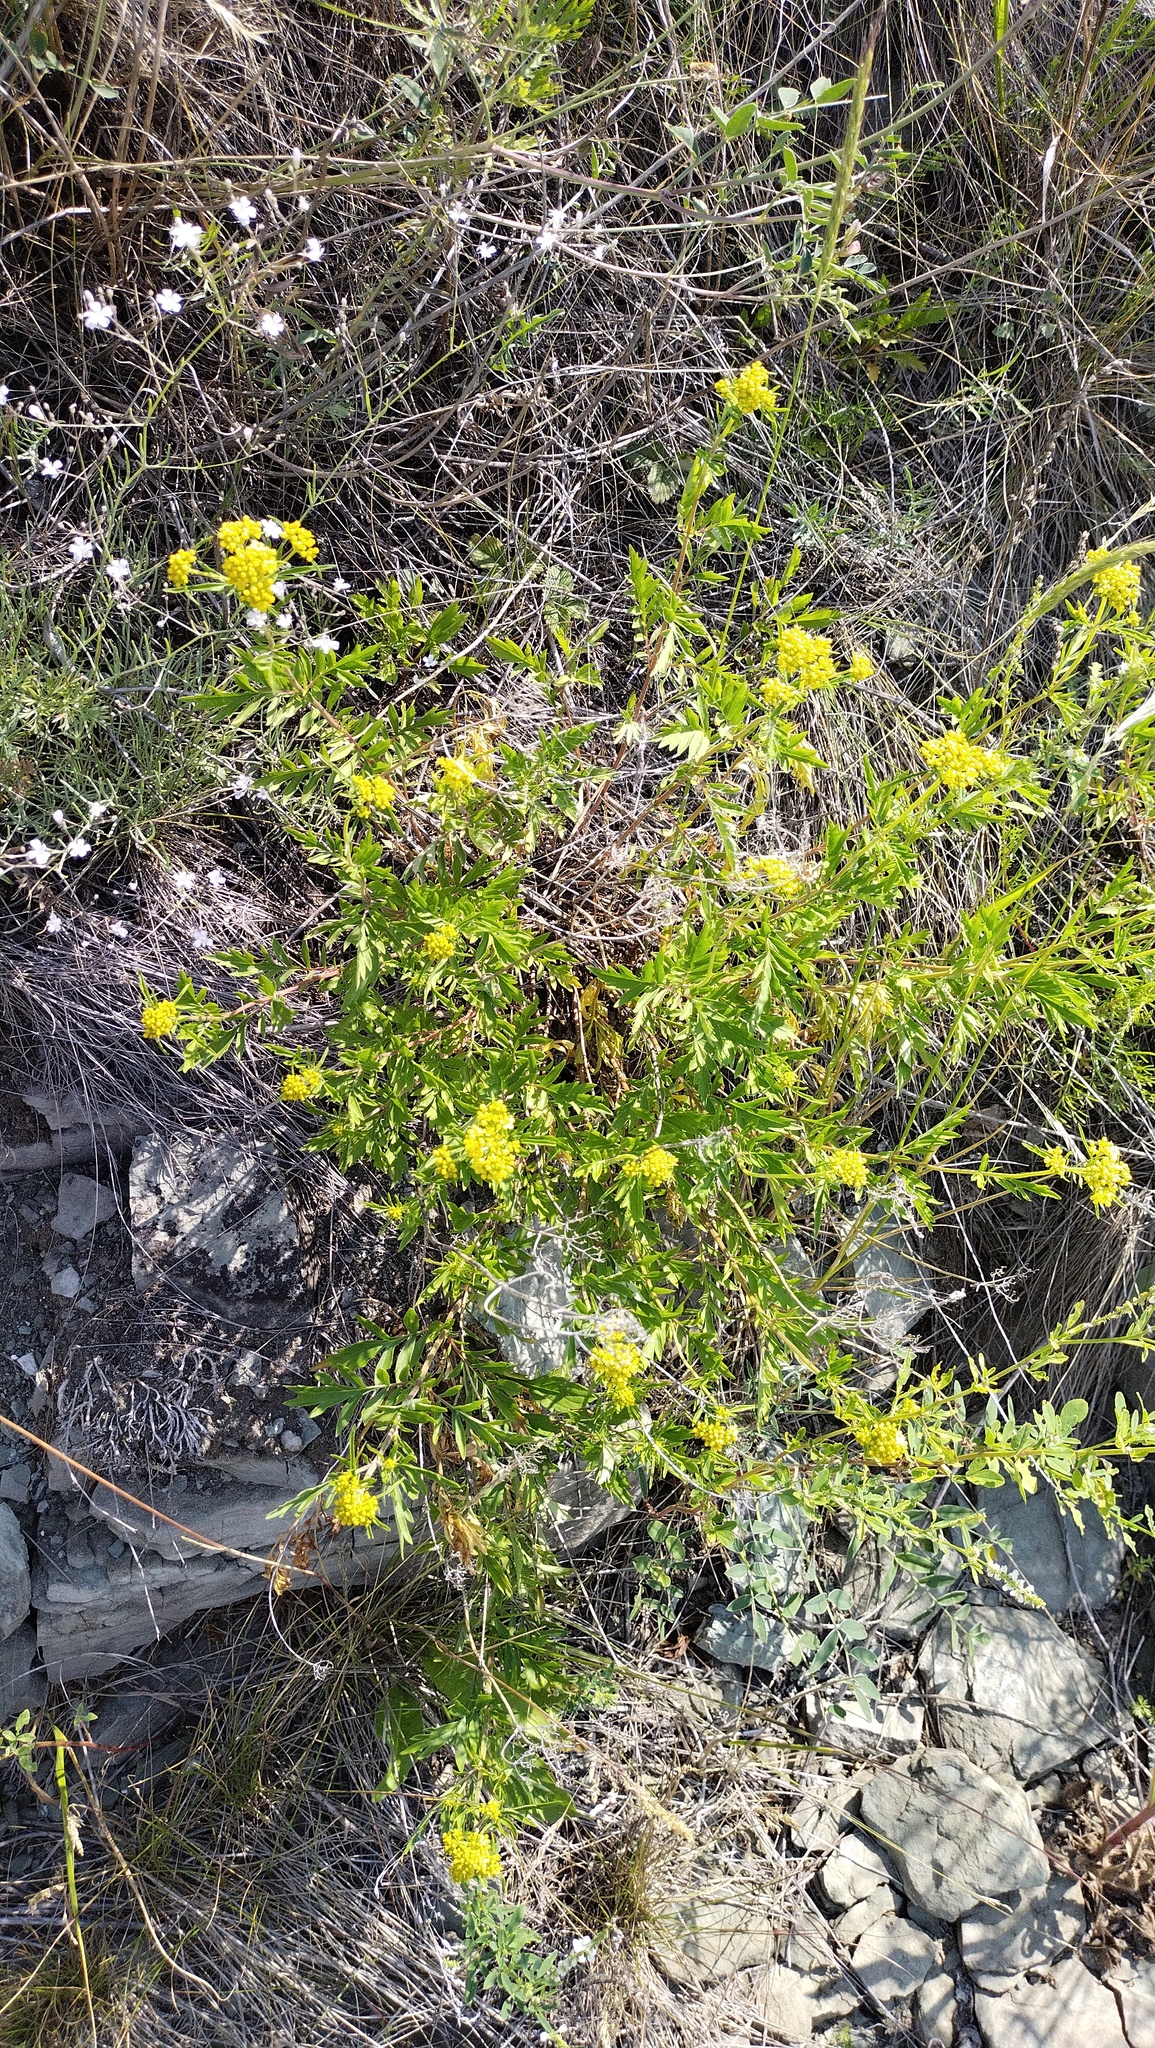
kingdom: Plantae
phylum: Tracheophyta
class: Magnoliopsida
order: Dipsacales
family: Caprifoliaceae
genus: Patrinia
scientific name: Patrinia rupestris
